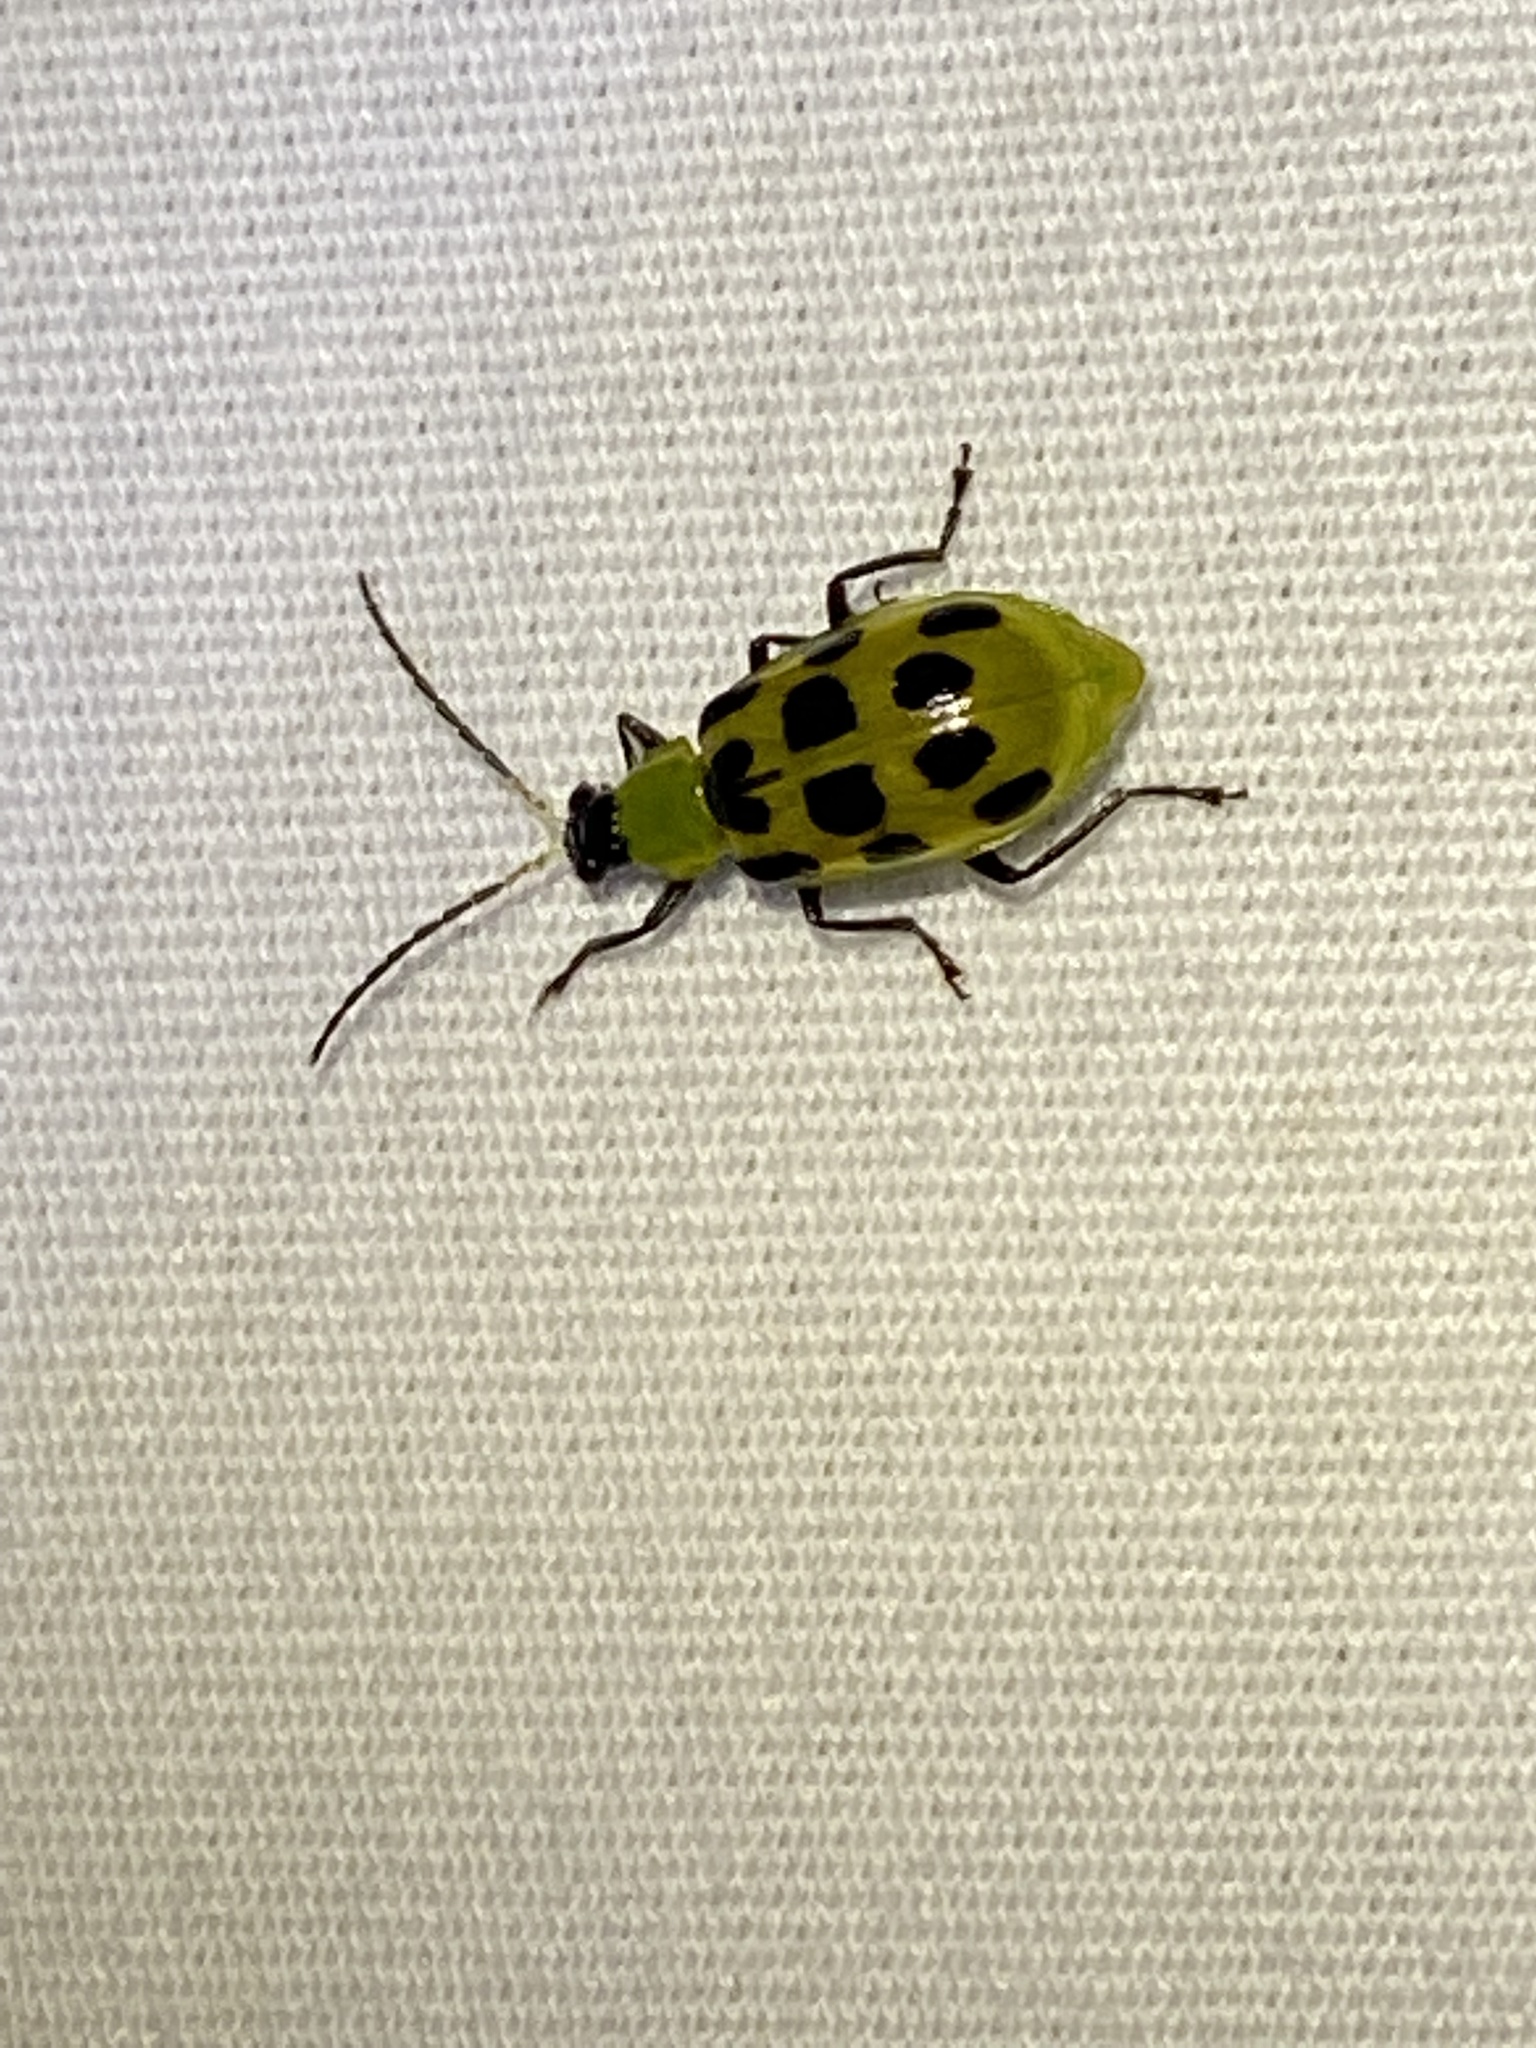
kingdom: Animalia
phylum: Arthropoda
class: Insecta
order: Coleoptera
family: Chrysomelidae
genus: Diabrotica
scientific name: Diabrotica undecimpunctata
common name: Spotted cucumber beetle
